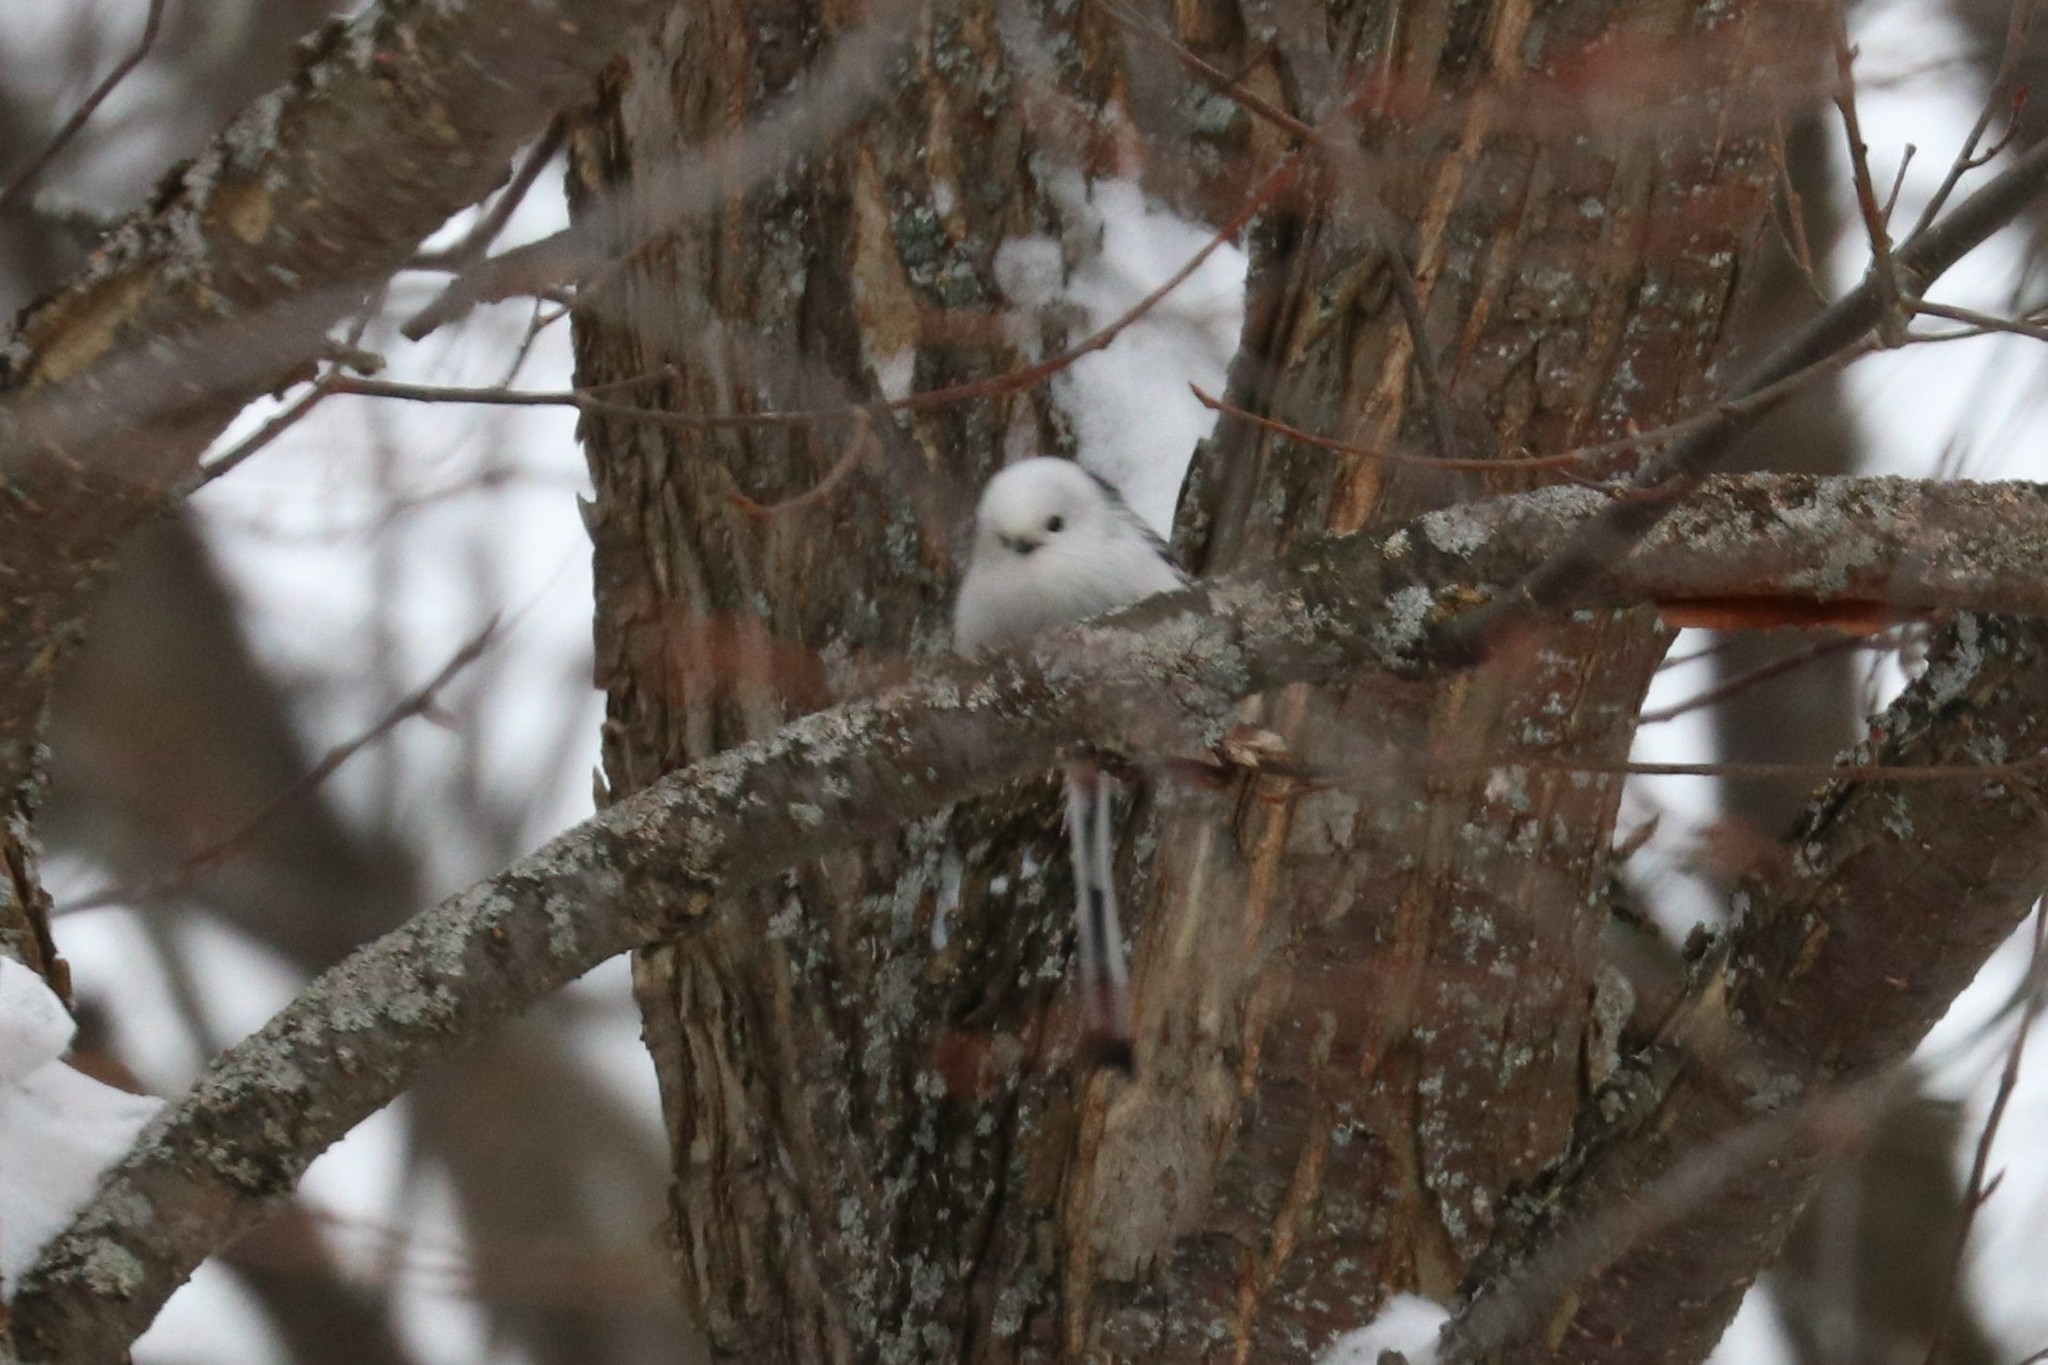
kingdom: Animalia
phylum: Chordata
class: Aves
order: Passeriformes
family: Aegithalidae
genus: Aegithalos
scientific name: Aegithalos caudatus
